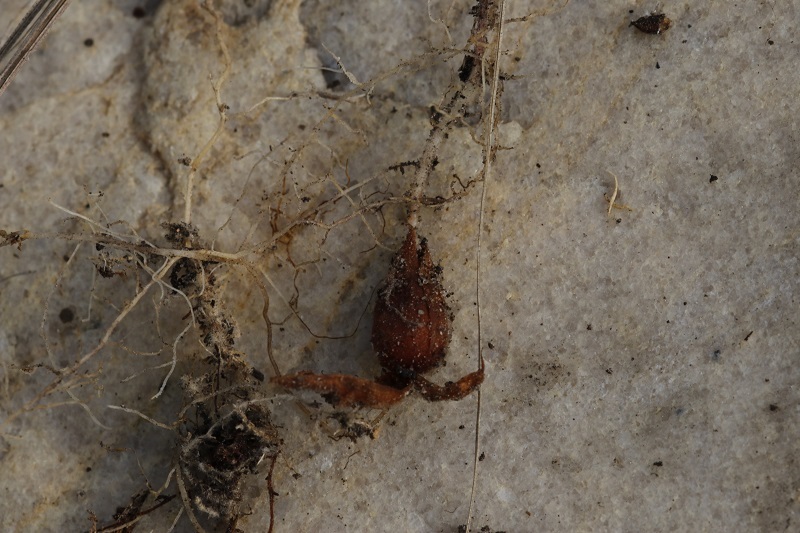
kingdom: Plantae
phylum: Tracheophyta
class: Magnoliopsida
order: Oxalidales
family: Oxalidaceae
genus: Oxalis
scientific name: Oxalis pendulifolia
